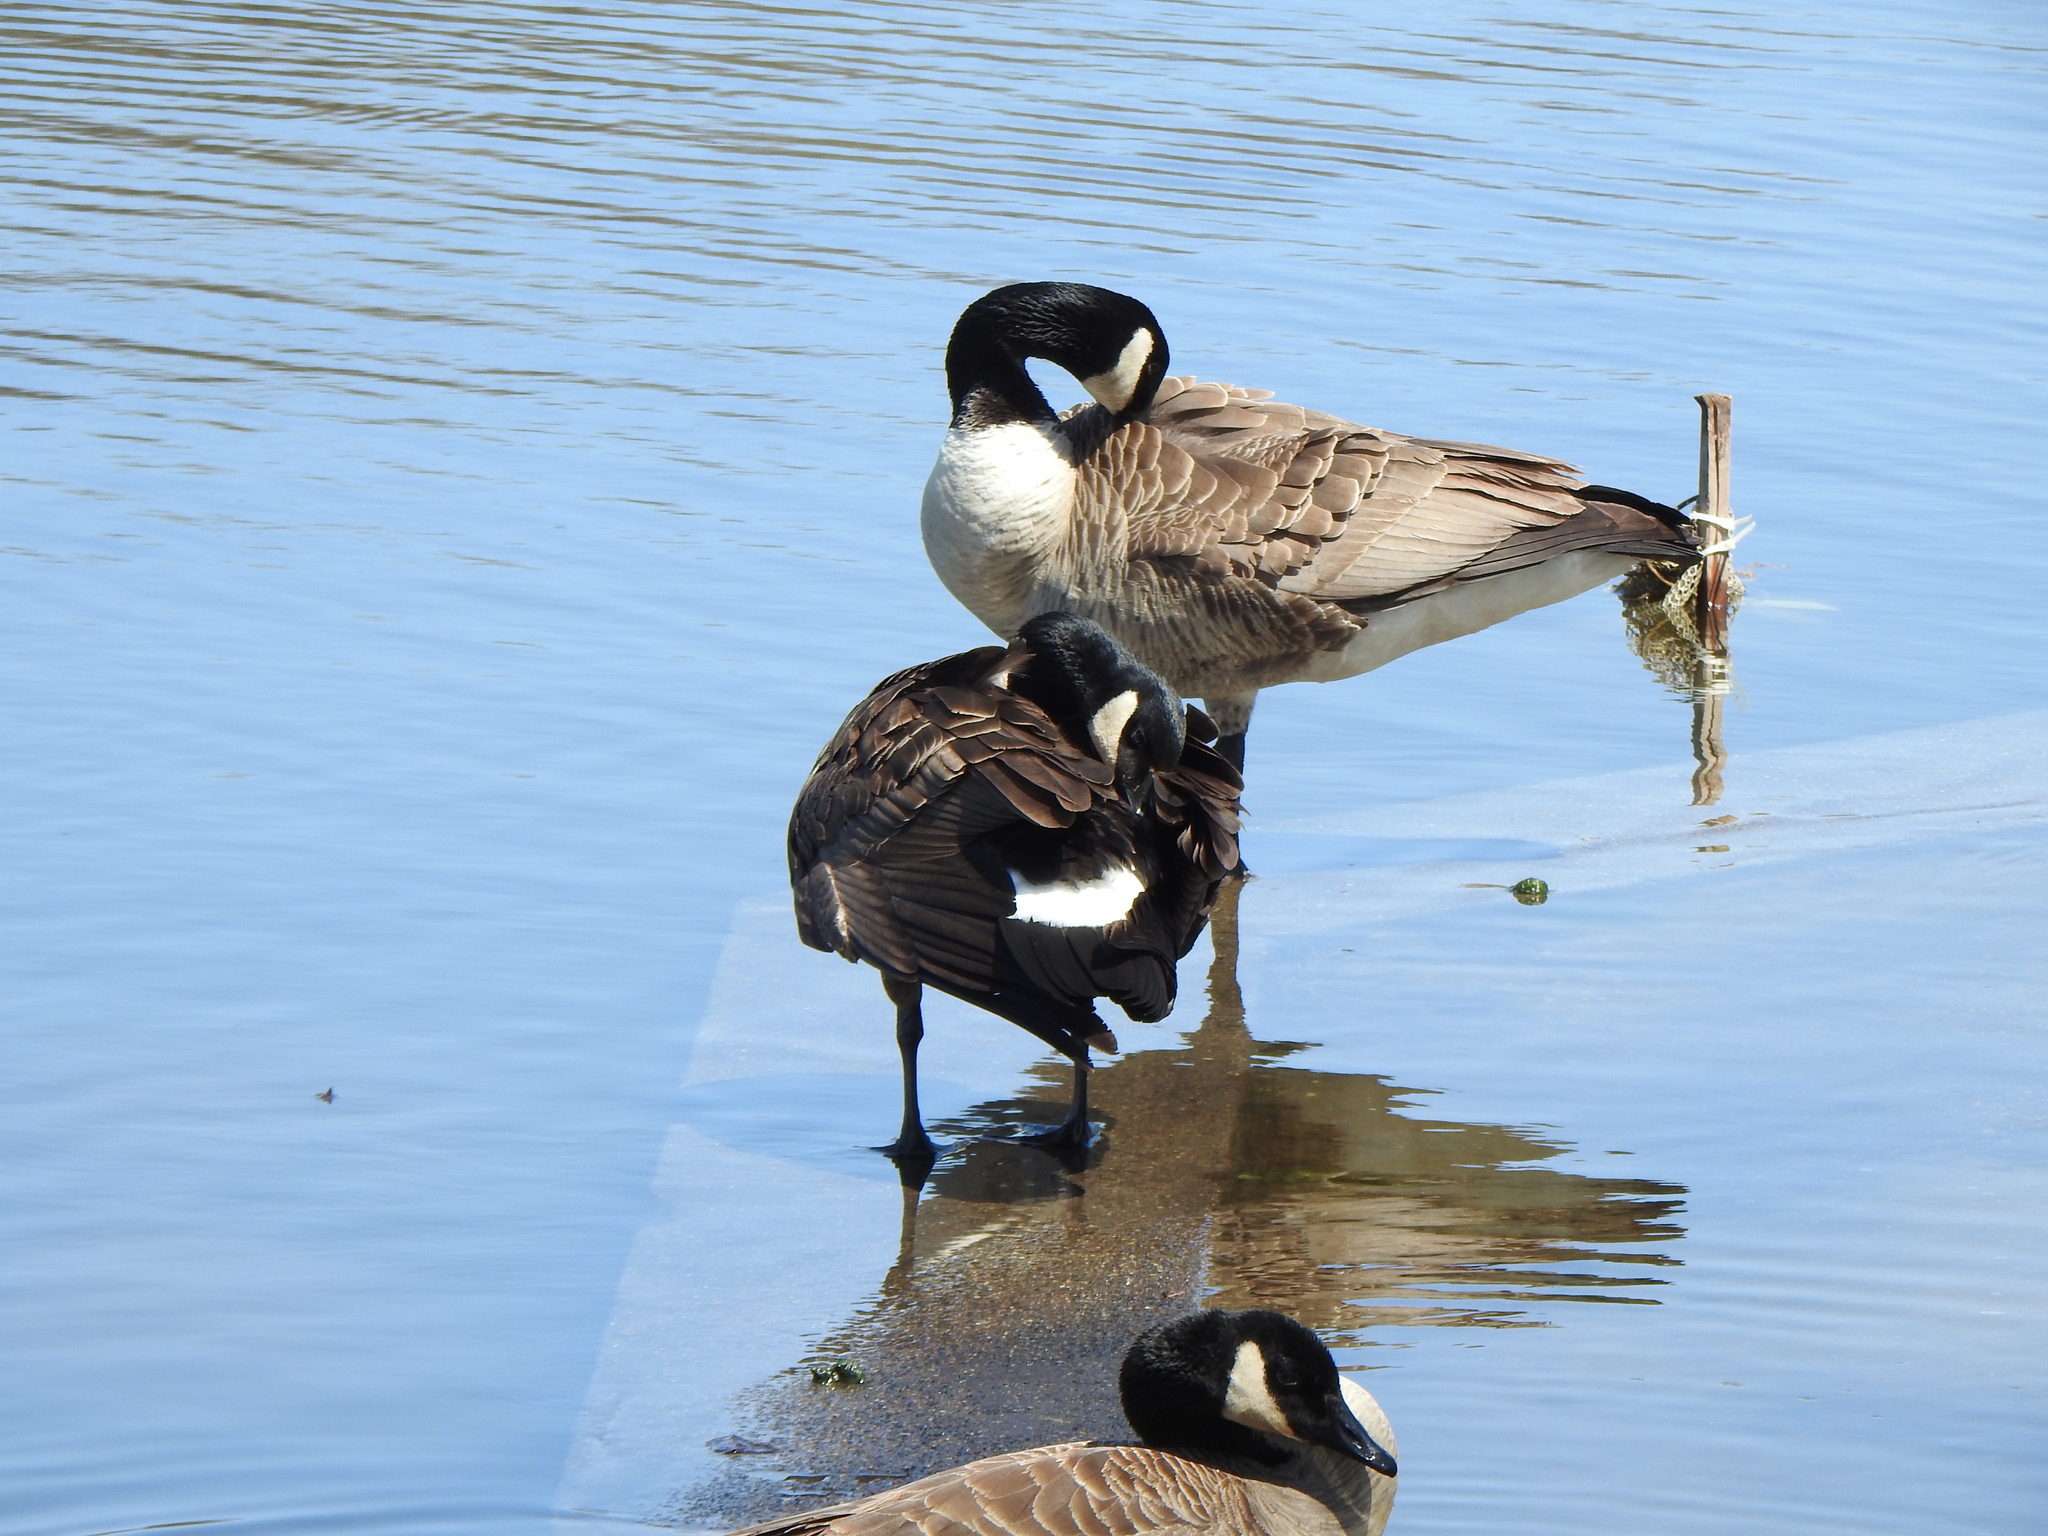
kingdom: Animalia
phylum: Chordata
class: Aves
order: Anseriformes
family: Anatidae
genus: Branta
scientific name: Branta canadensis
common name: Canada goose
